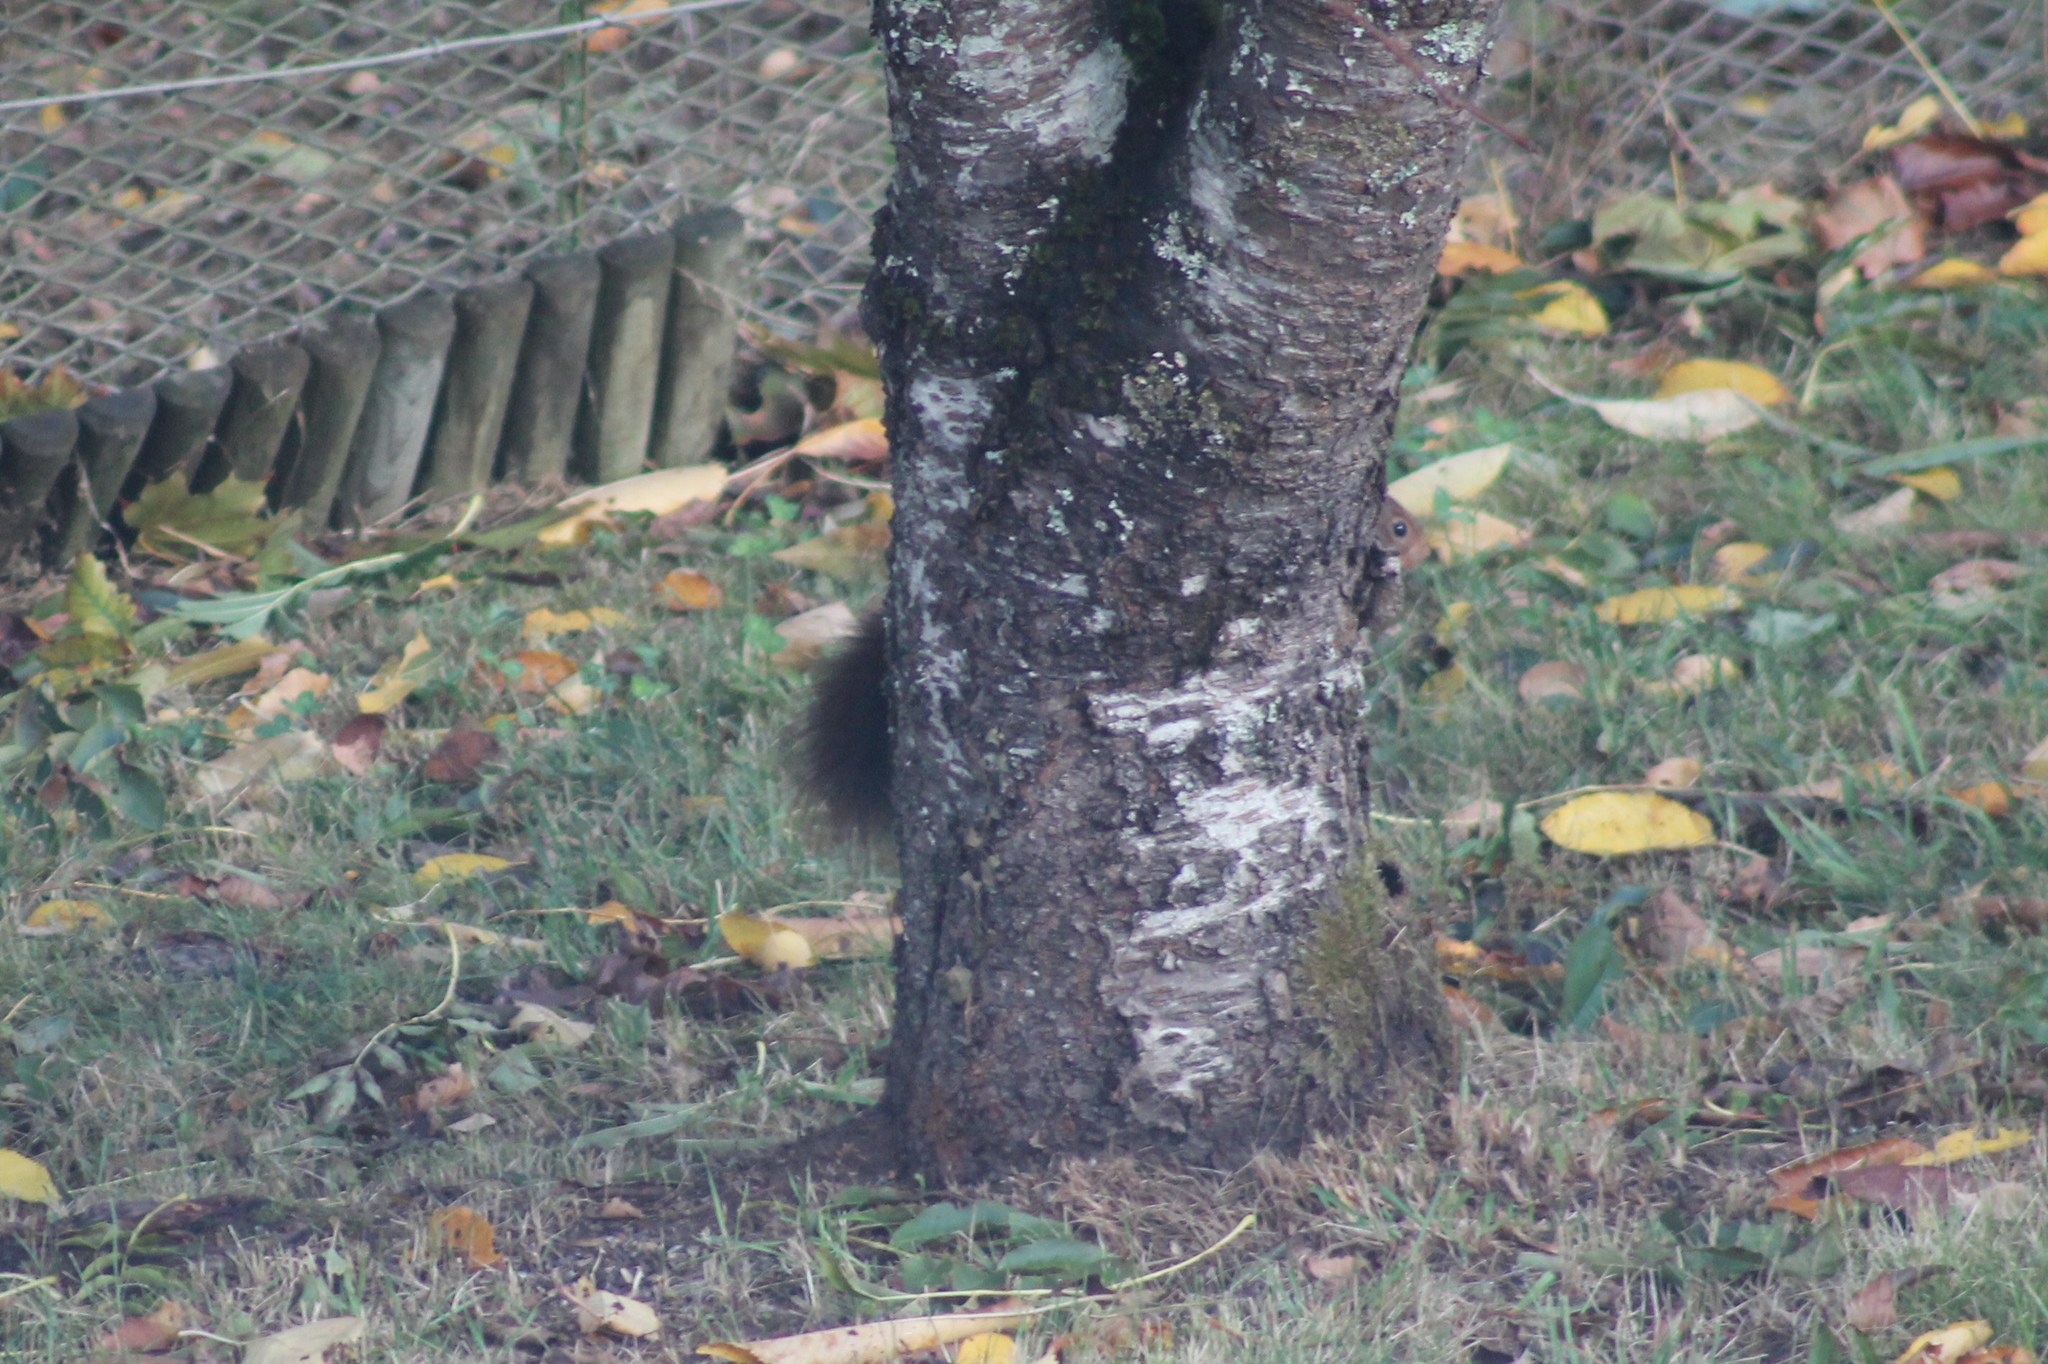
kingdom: Animalia
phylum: Chordata
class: Mammalia
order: Rodentia
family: Sciuridae
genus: Sciurus
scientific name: Sciurus vulgaris
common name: Eurasian red squirrel
